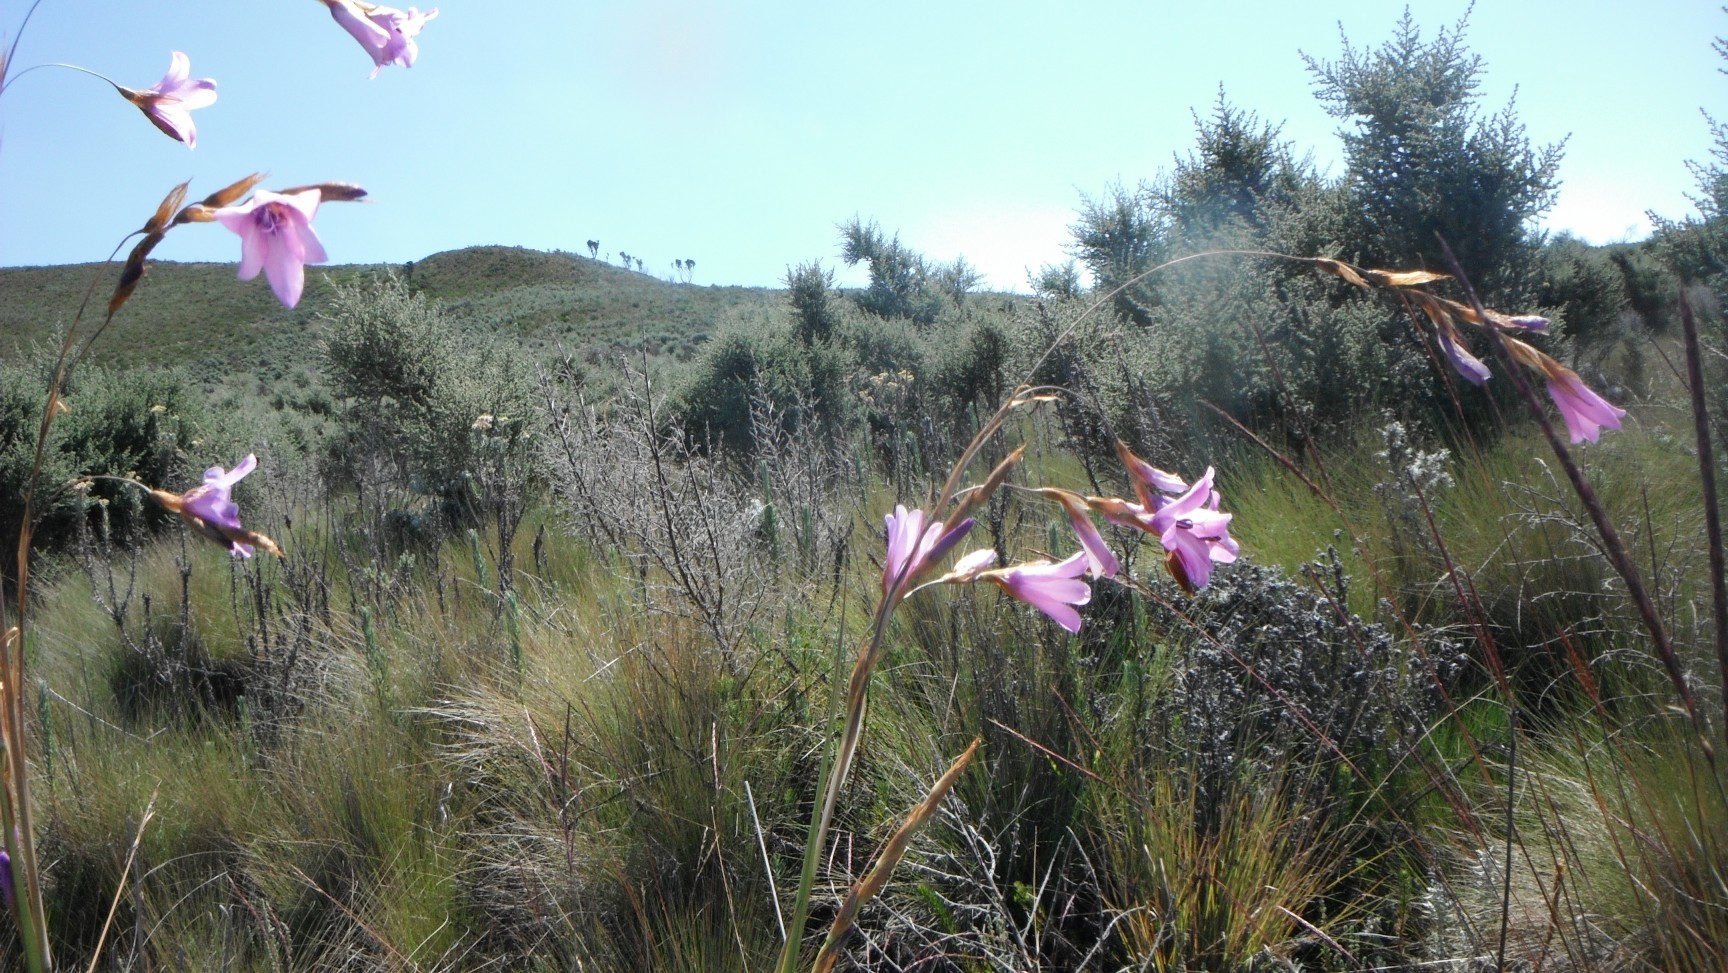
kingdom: Plantae
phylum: Tracheophyta
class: Liliopsida
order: Asparagales
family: Iridaceae
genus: Dierama
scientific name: Dierama cupuliflorum
